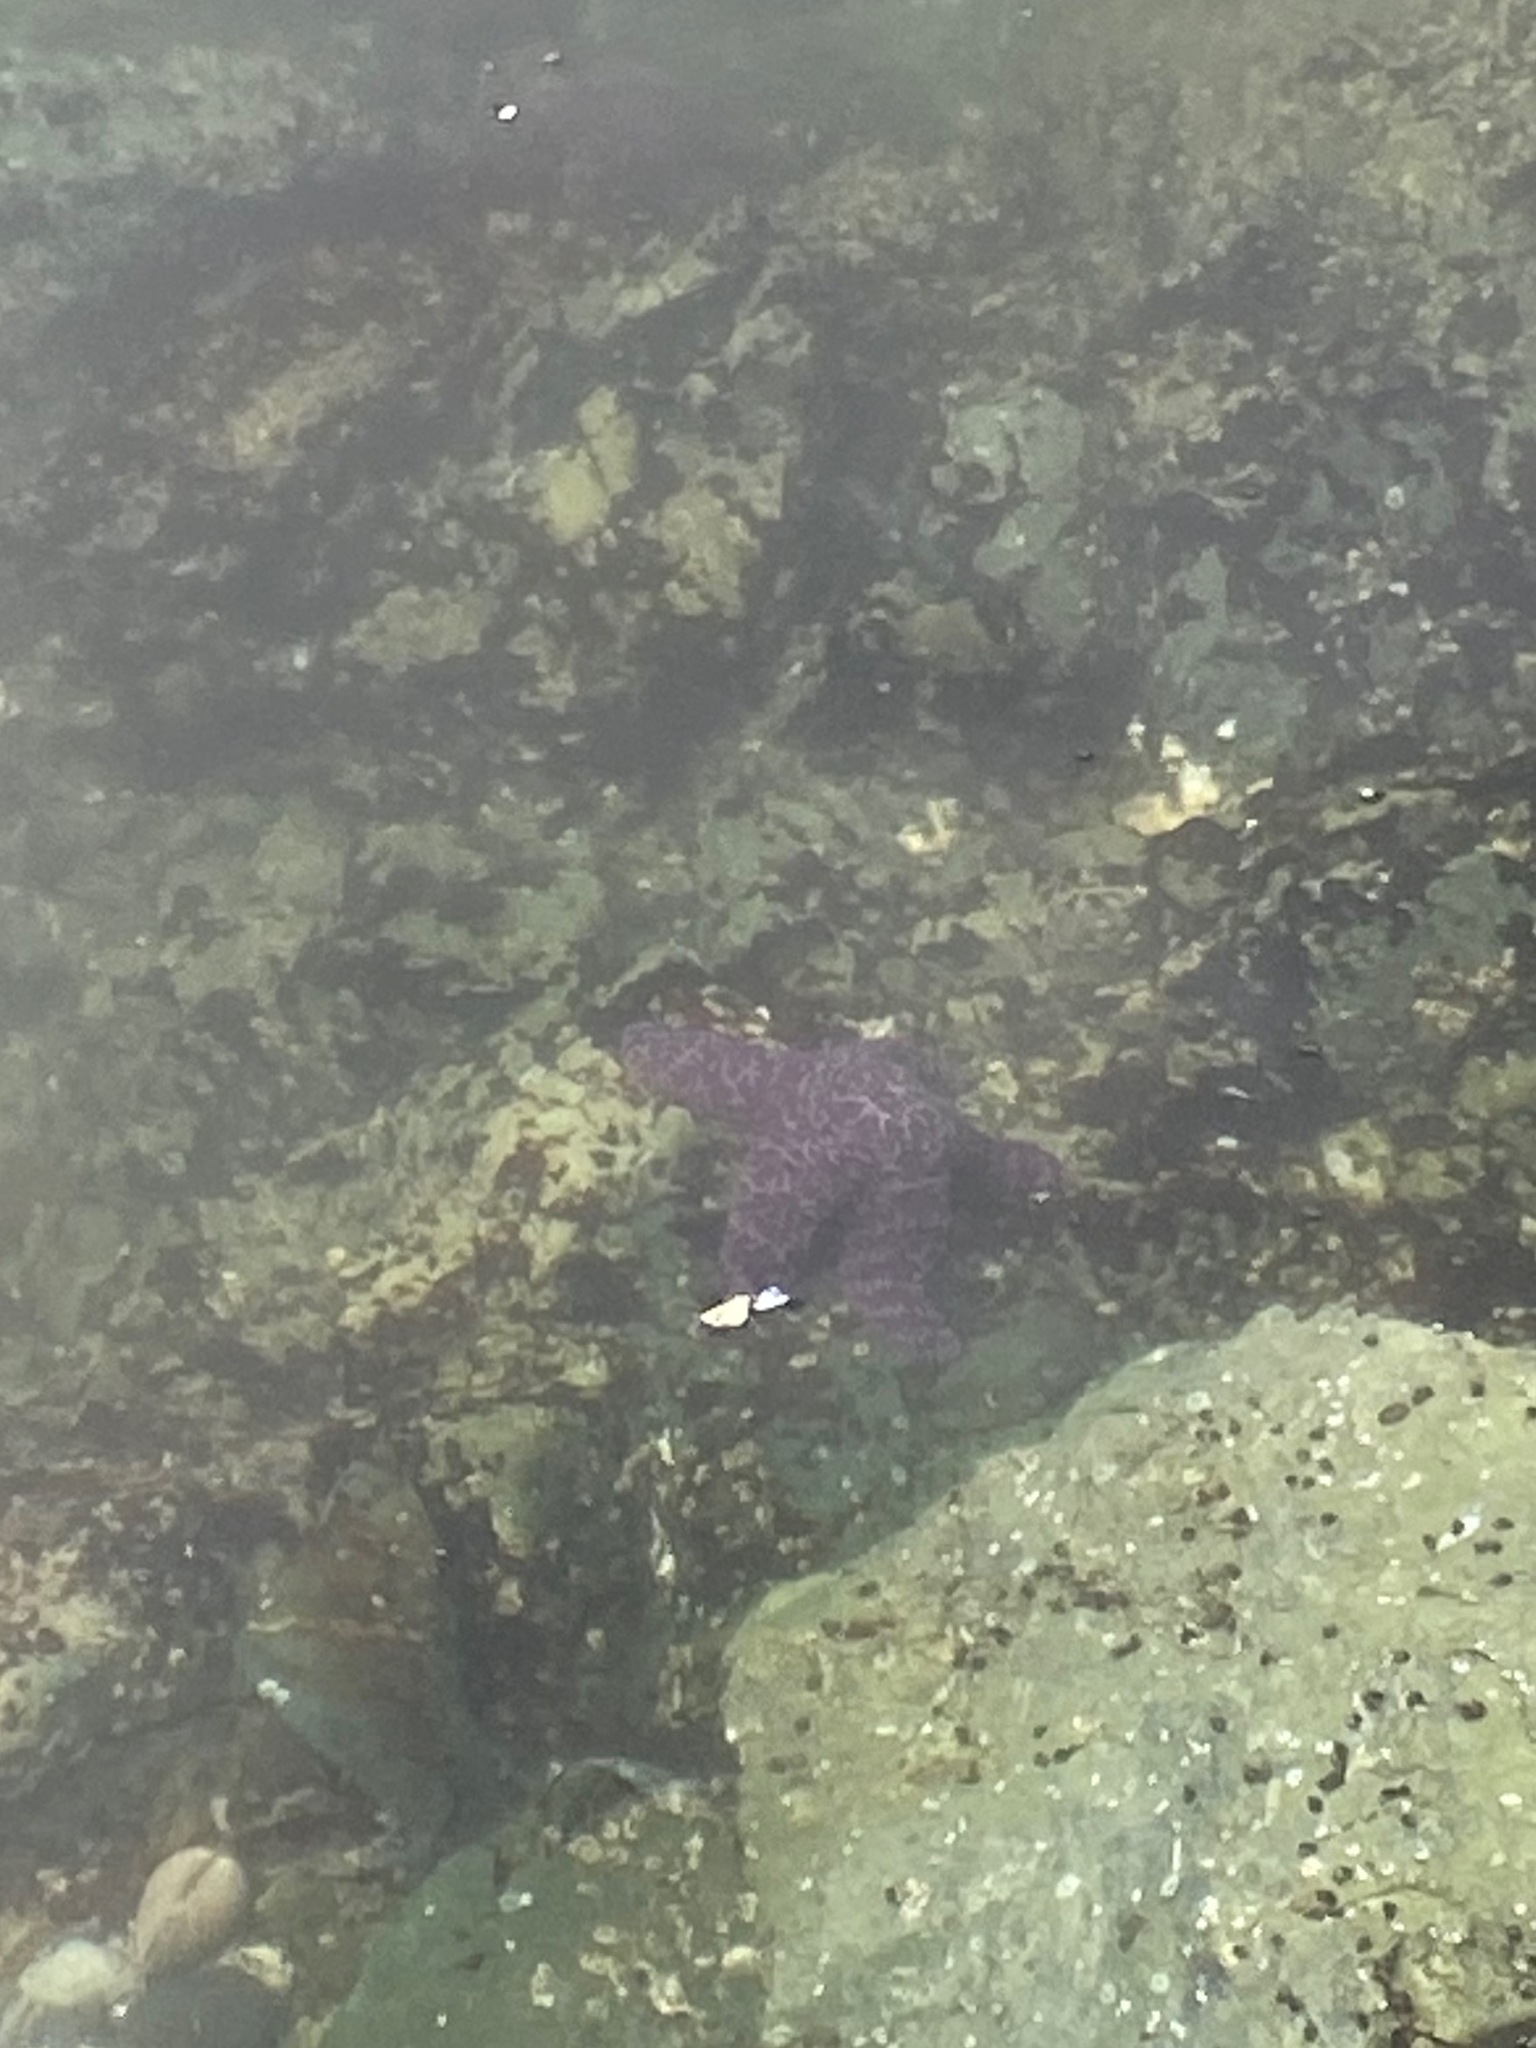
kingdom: Animalia
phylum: Echinodermata
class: Asteroidea
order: Forcipulatida
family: Asteriidae
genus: Pisaster
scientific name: Pisaster ochraceus
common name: Ochre stars
